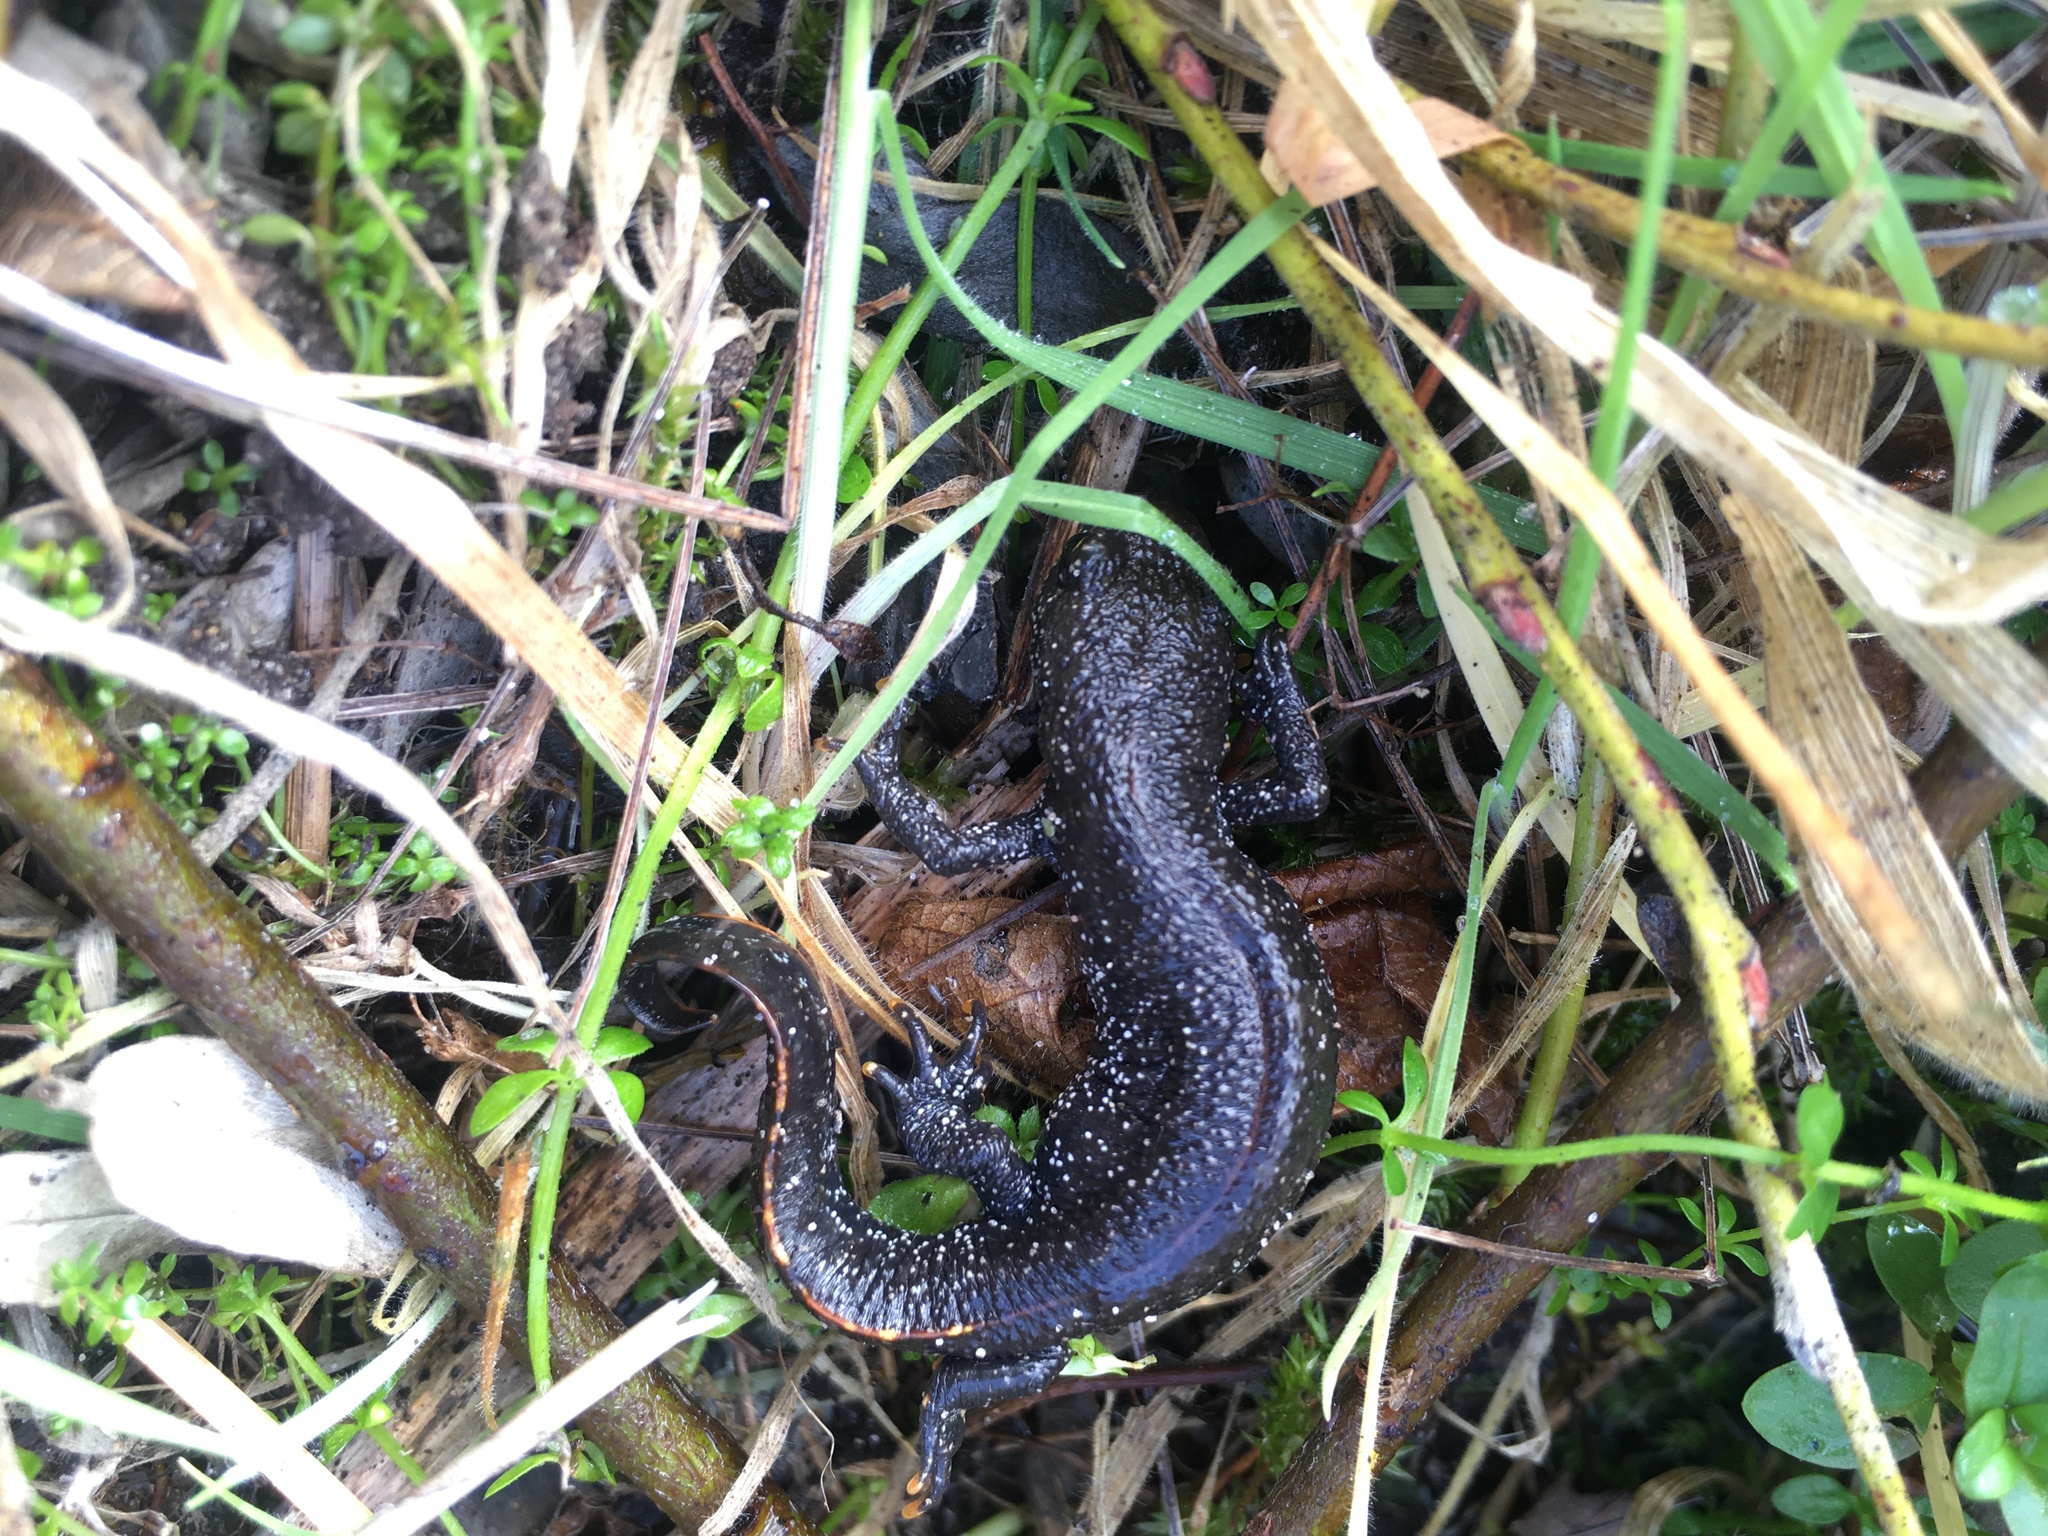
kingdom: Animalia
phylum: Chordata
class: Amphibia
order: Caudata
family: Salamandridae
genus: Triturus
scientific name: Triturus cristatus
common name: Crested newt
